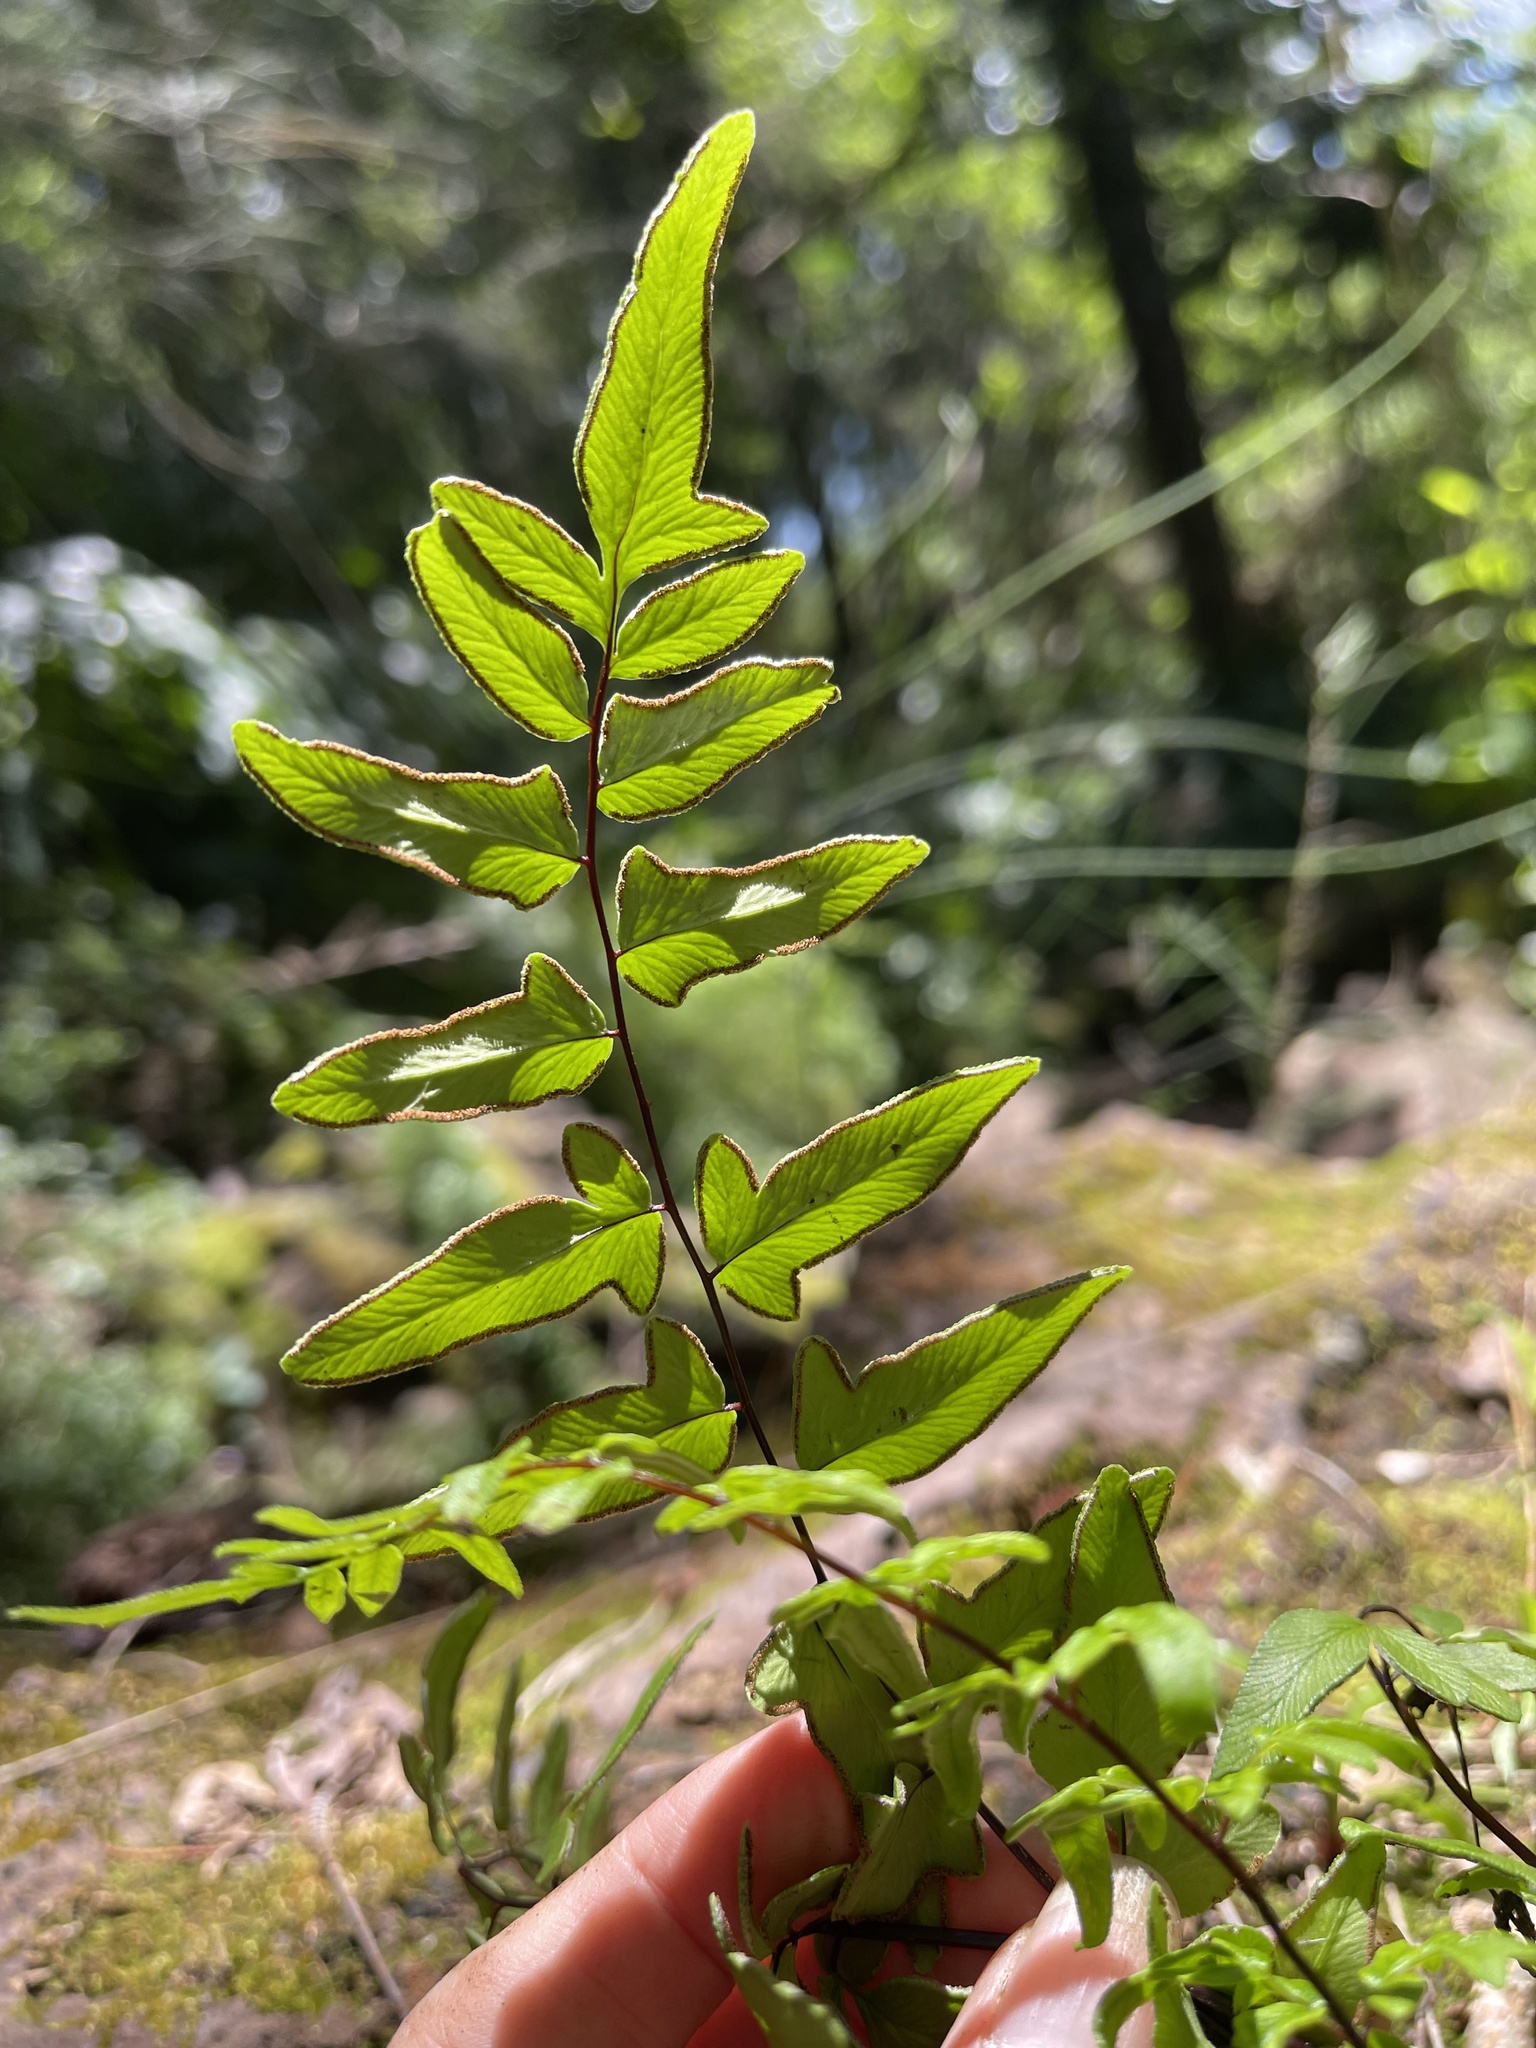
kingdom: Plantae
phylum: Tracheophyta
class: Polypodiopsida
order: Polypodiales
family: Pteridaceae
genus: Cheilanthes
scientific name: Cheilanthes viridis
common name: Green cliffbrake
